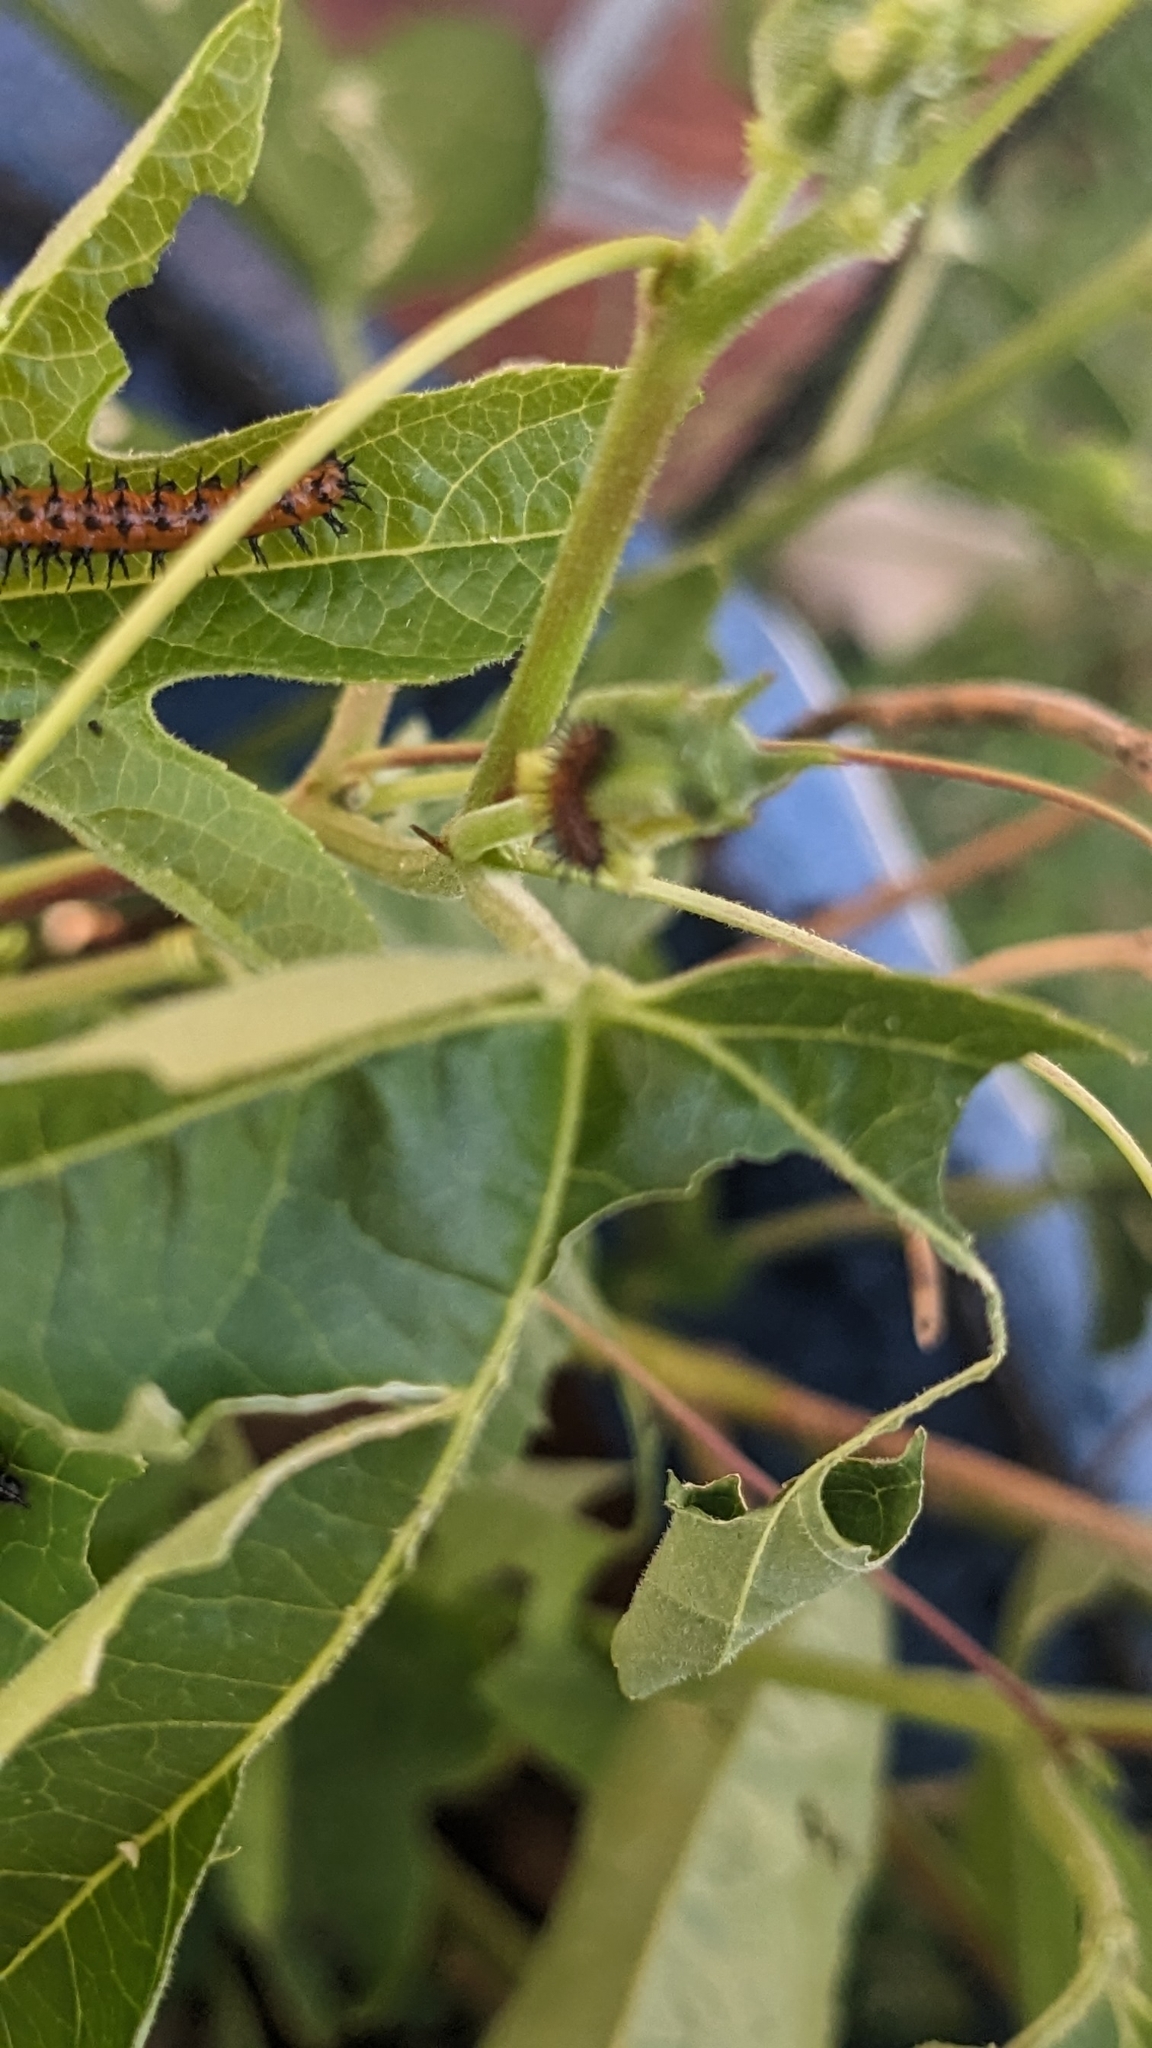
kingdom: Animalia
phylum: Arthropoda
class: Insecta
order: Lepidoptera
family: Nymphalidae
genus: Dione
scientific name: Dione vanillae
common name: Gulf fritillary
